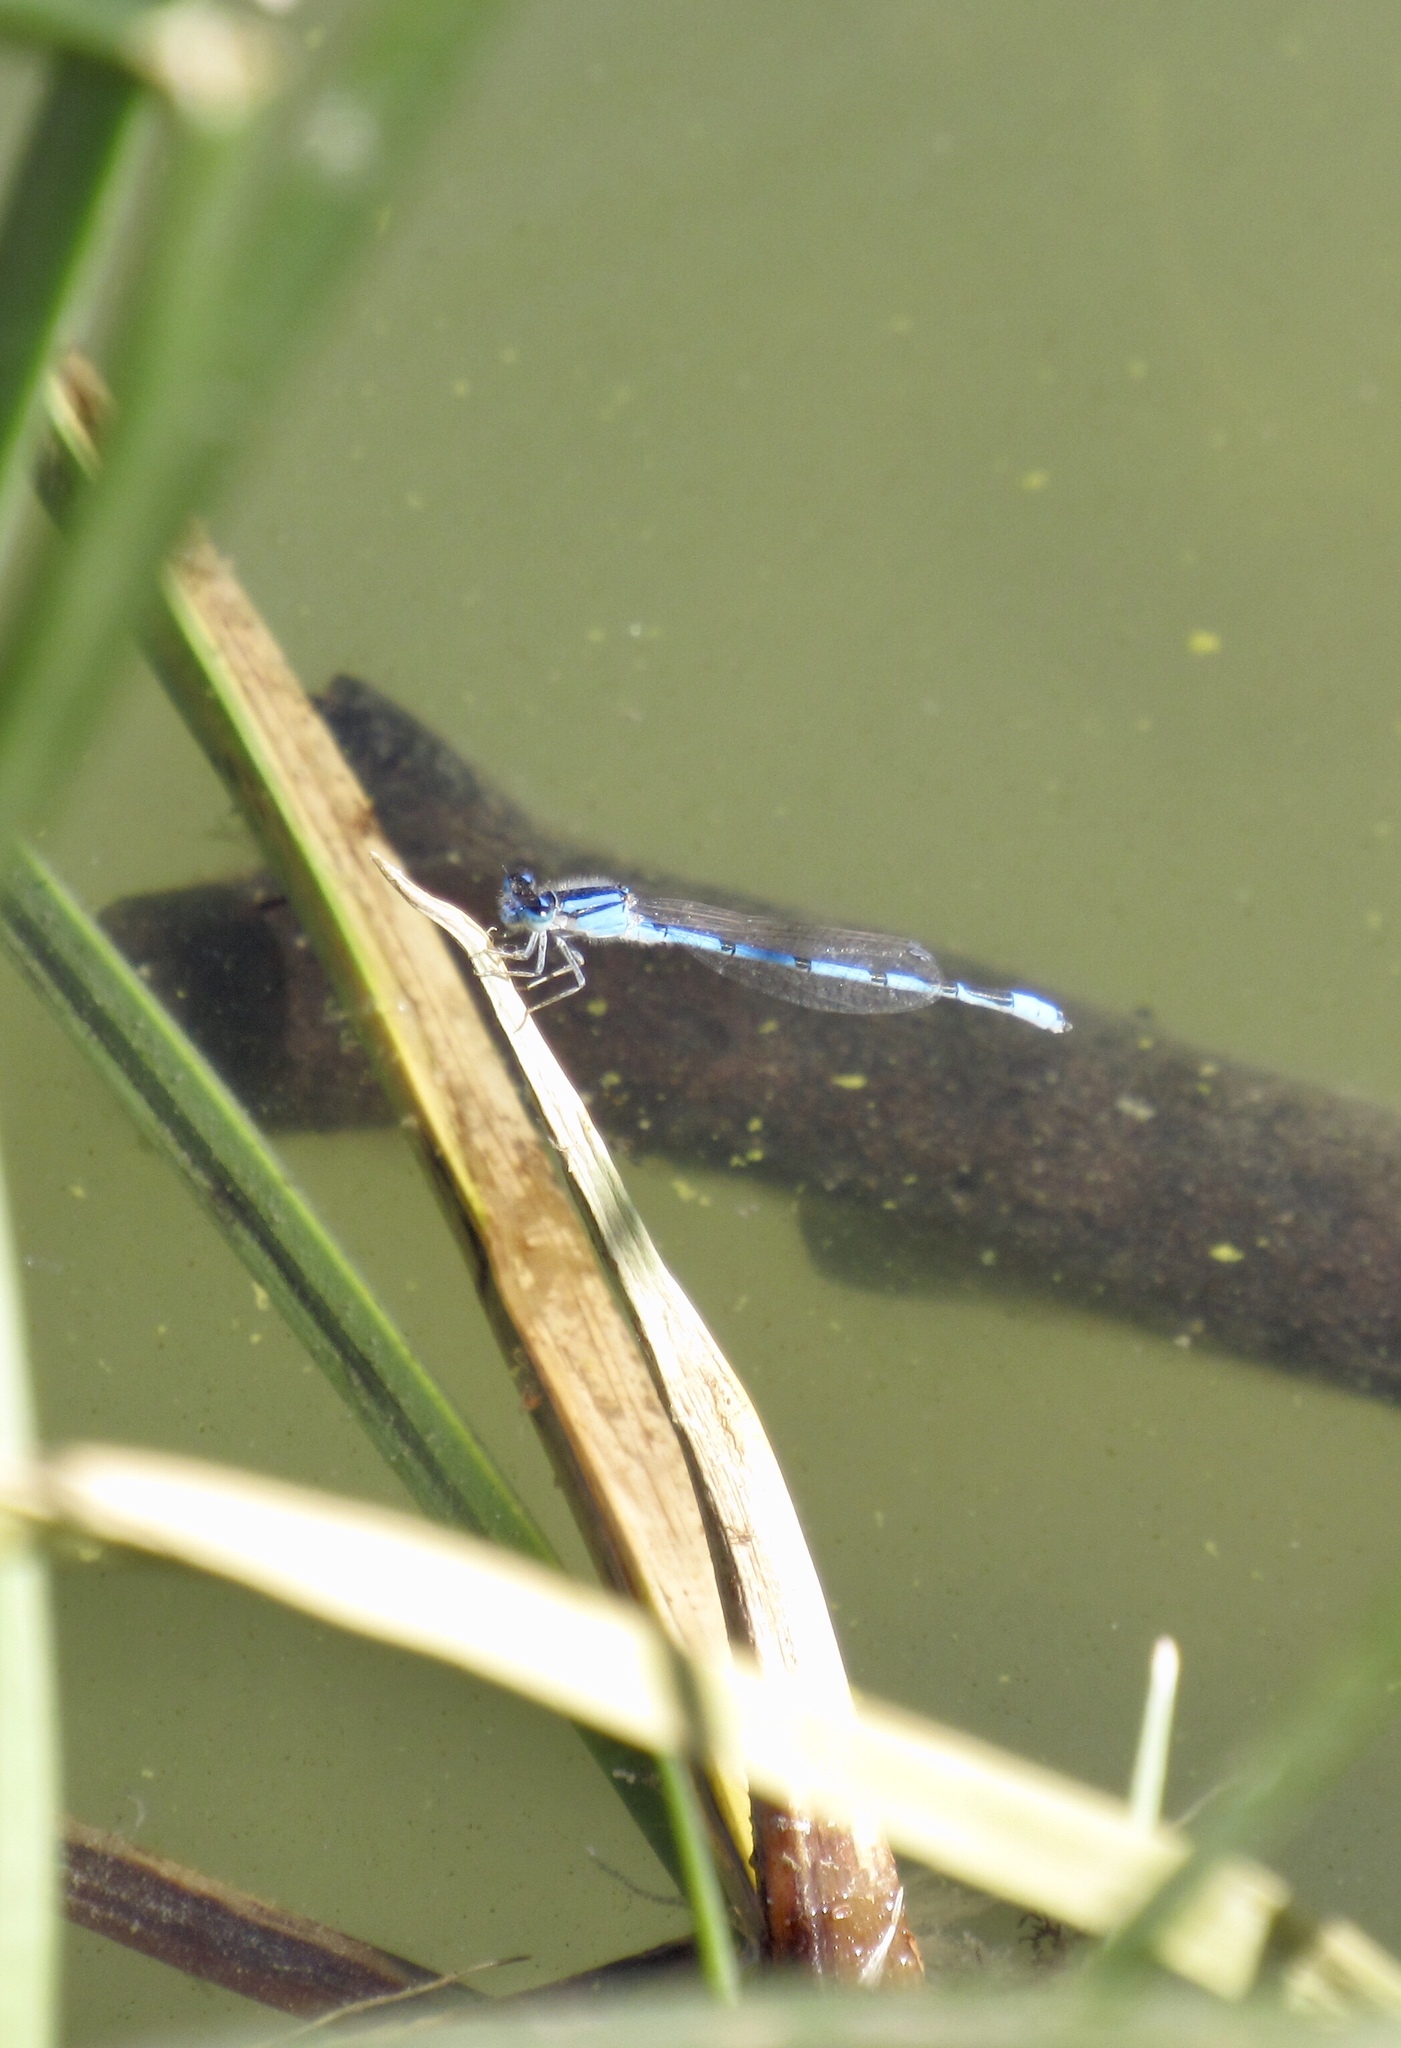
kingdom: Animalia
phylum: Arthropoda
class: Insecta
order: Odonata
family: Coenagrionidae
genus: Enallagma
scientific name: Enallagma civile
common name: Damselfly
